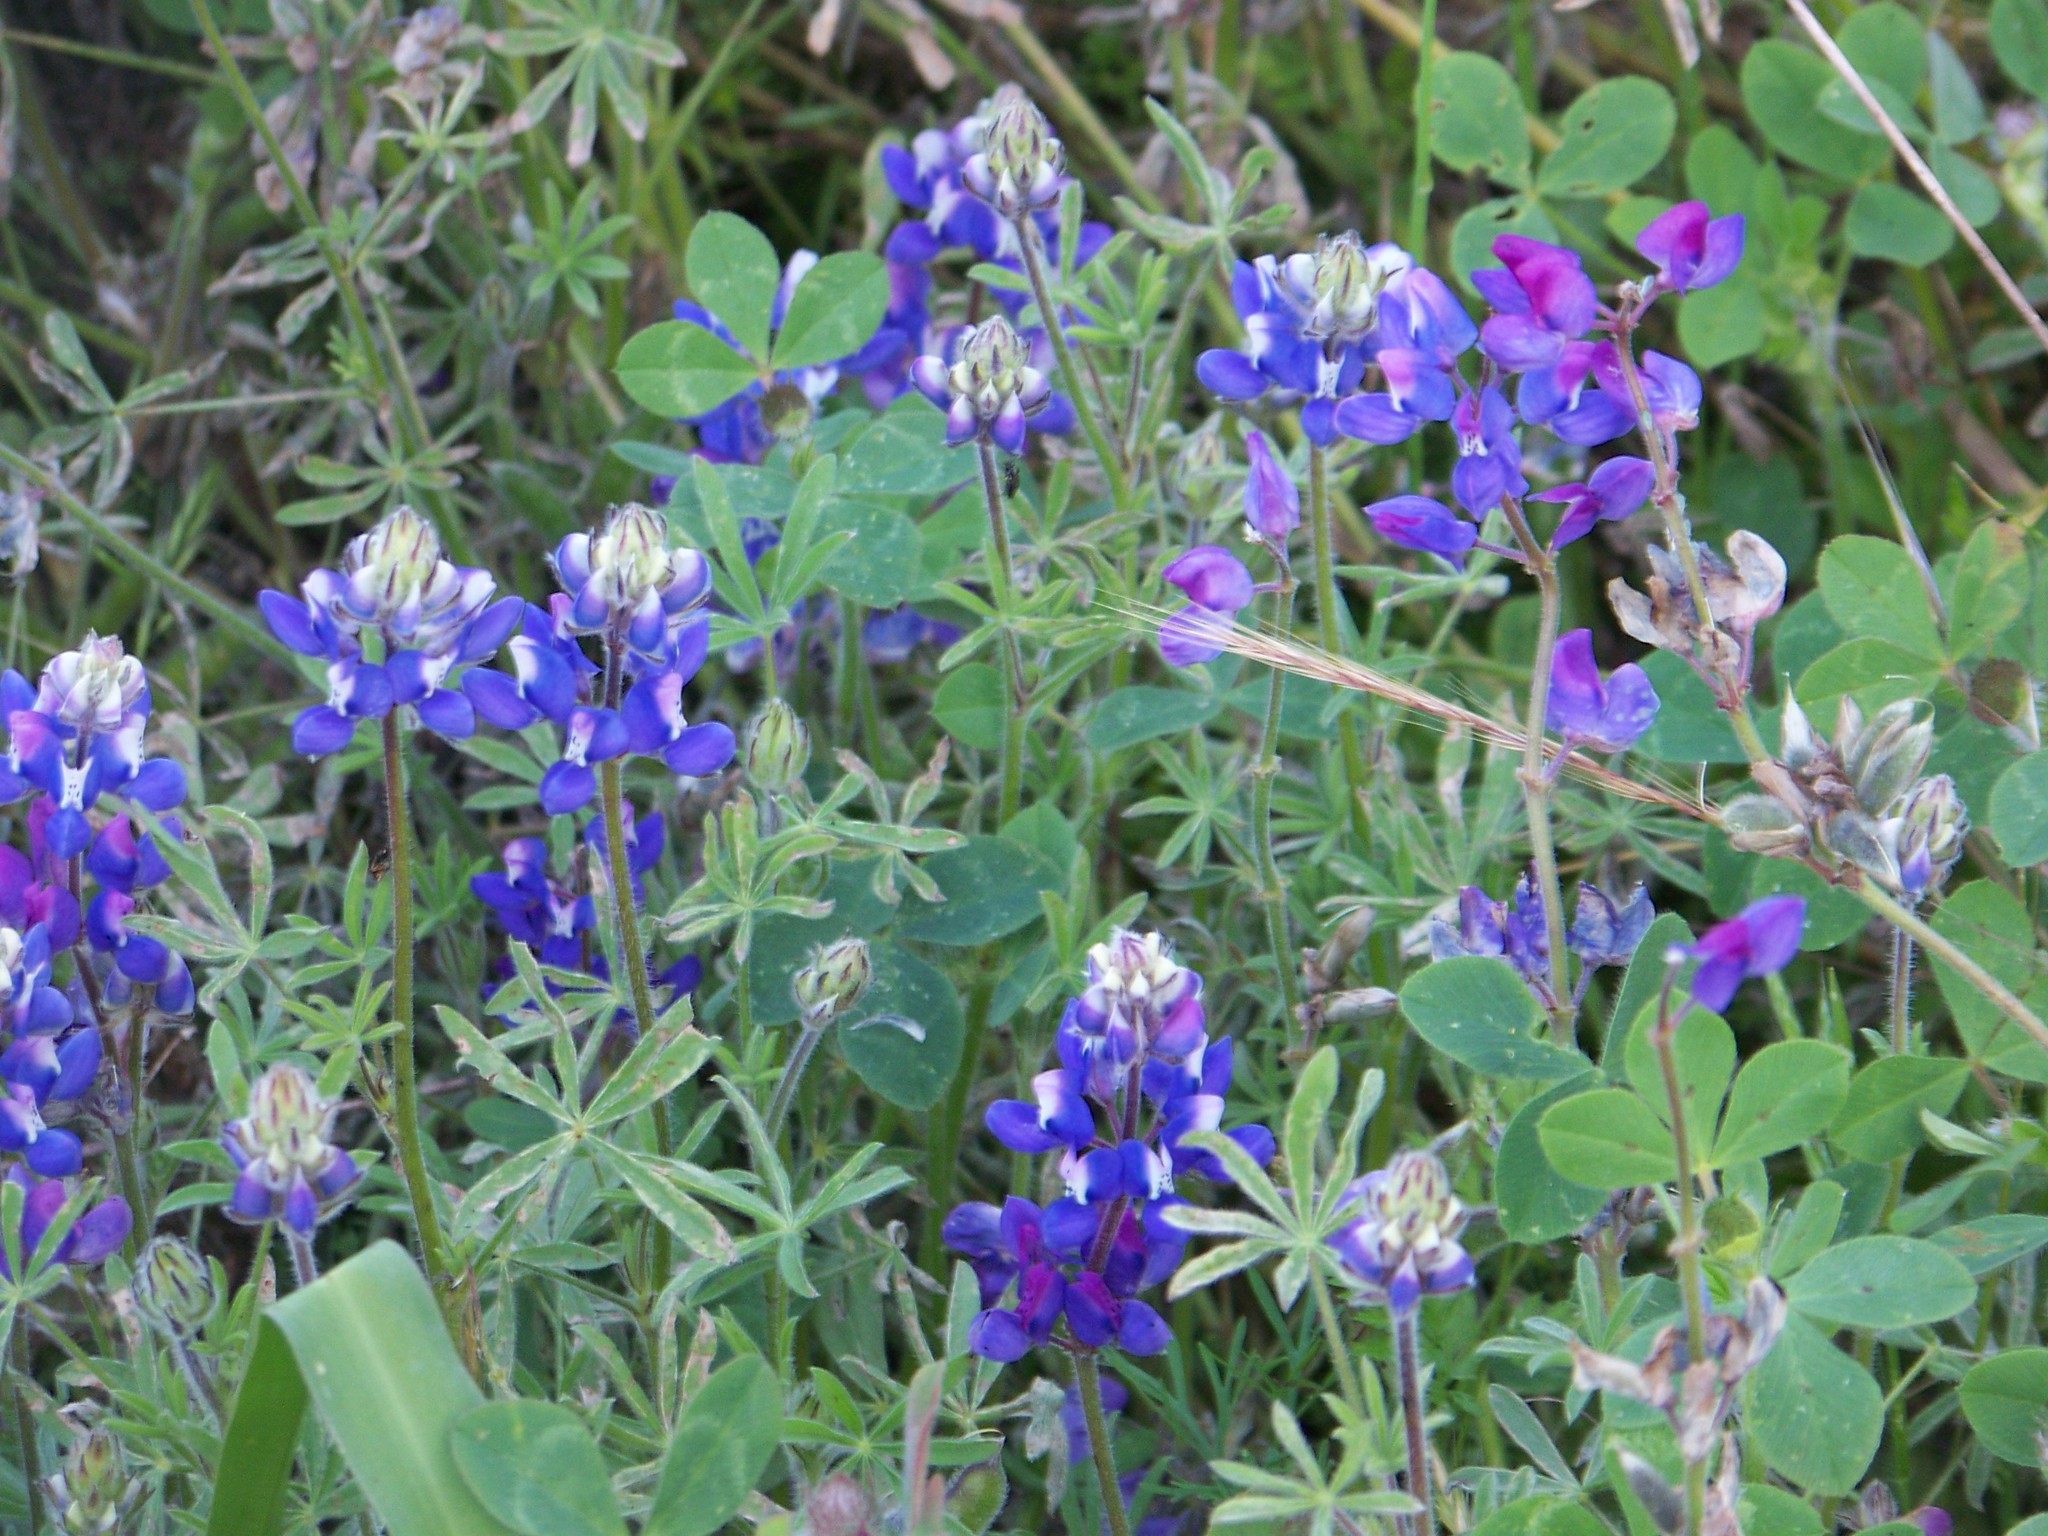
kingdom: Plantae
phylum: Tracheophyta
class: Magnoliopsida
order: Fabales
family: Fabaceae
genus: Lupinus
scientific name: Lupinus nanus
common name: Orean blue lupin
